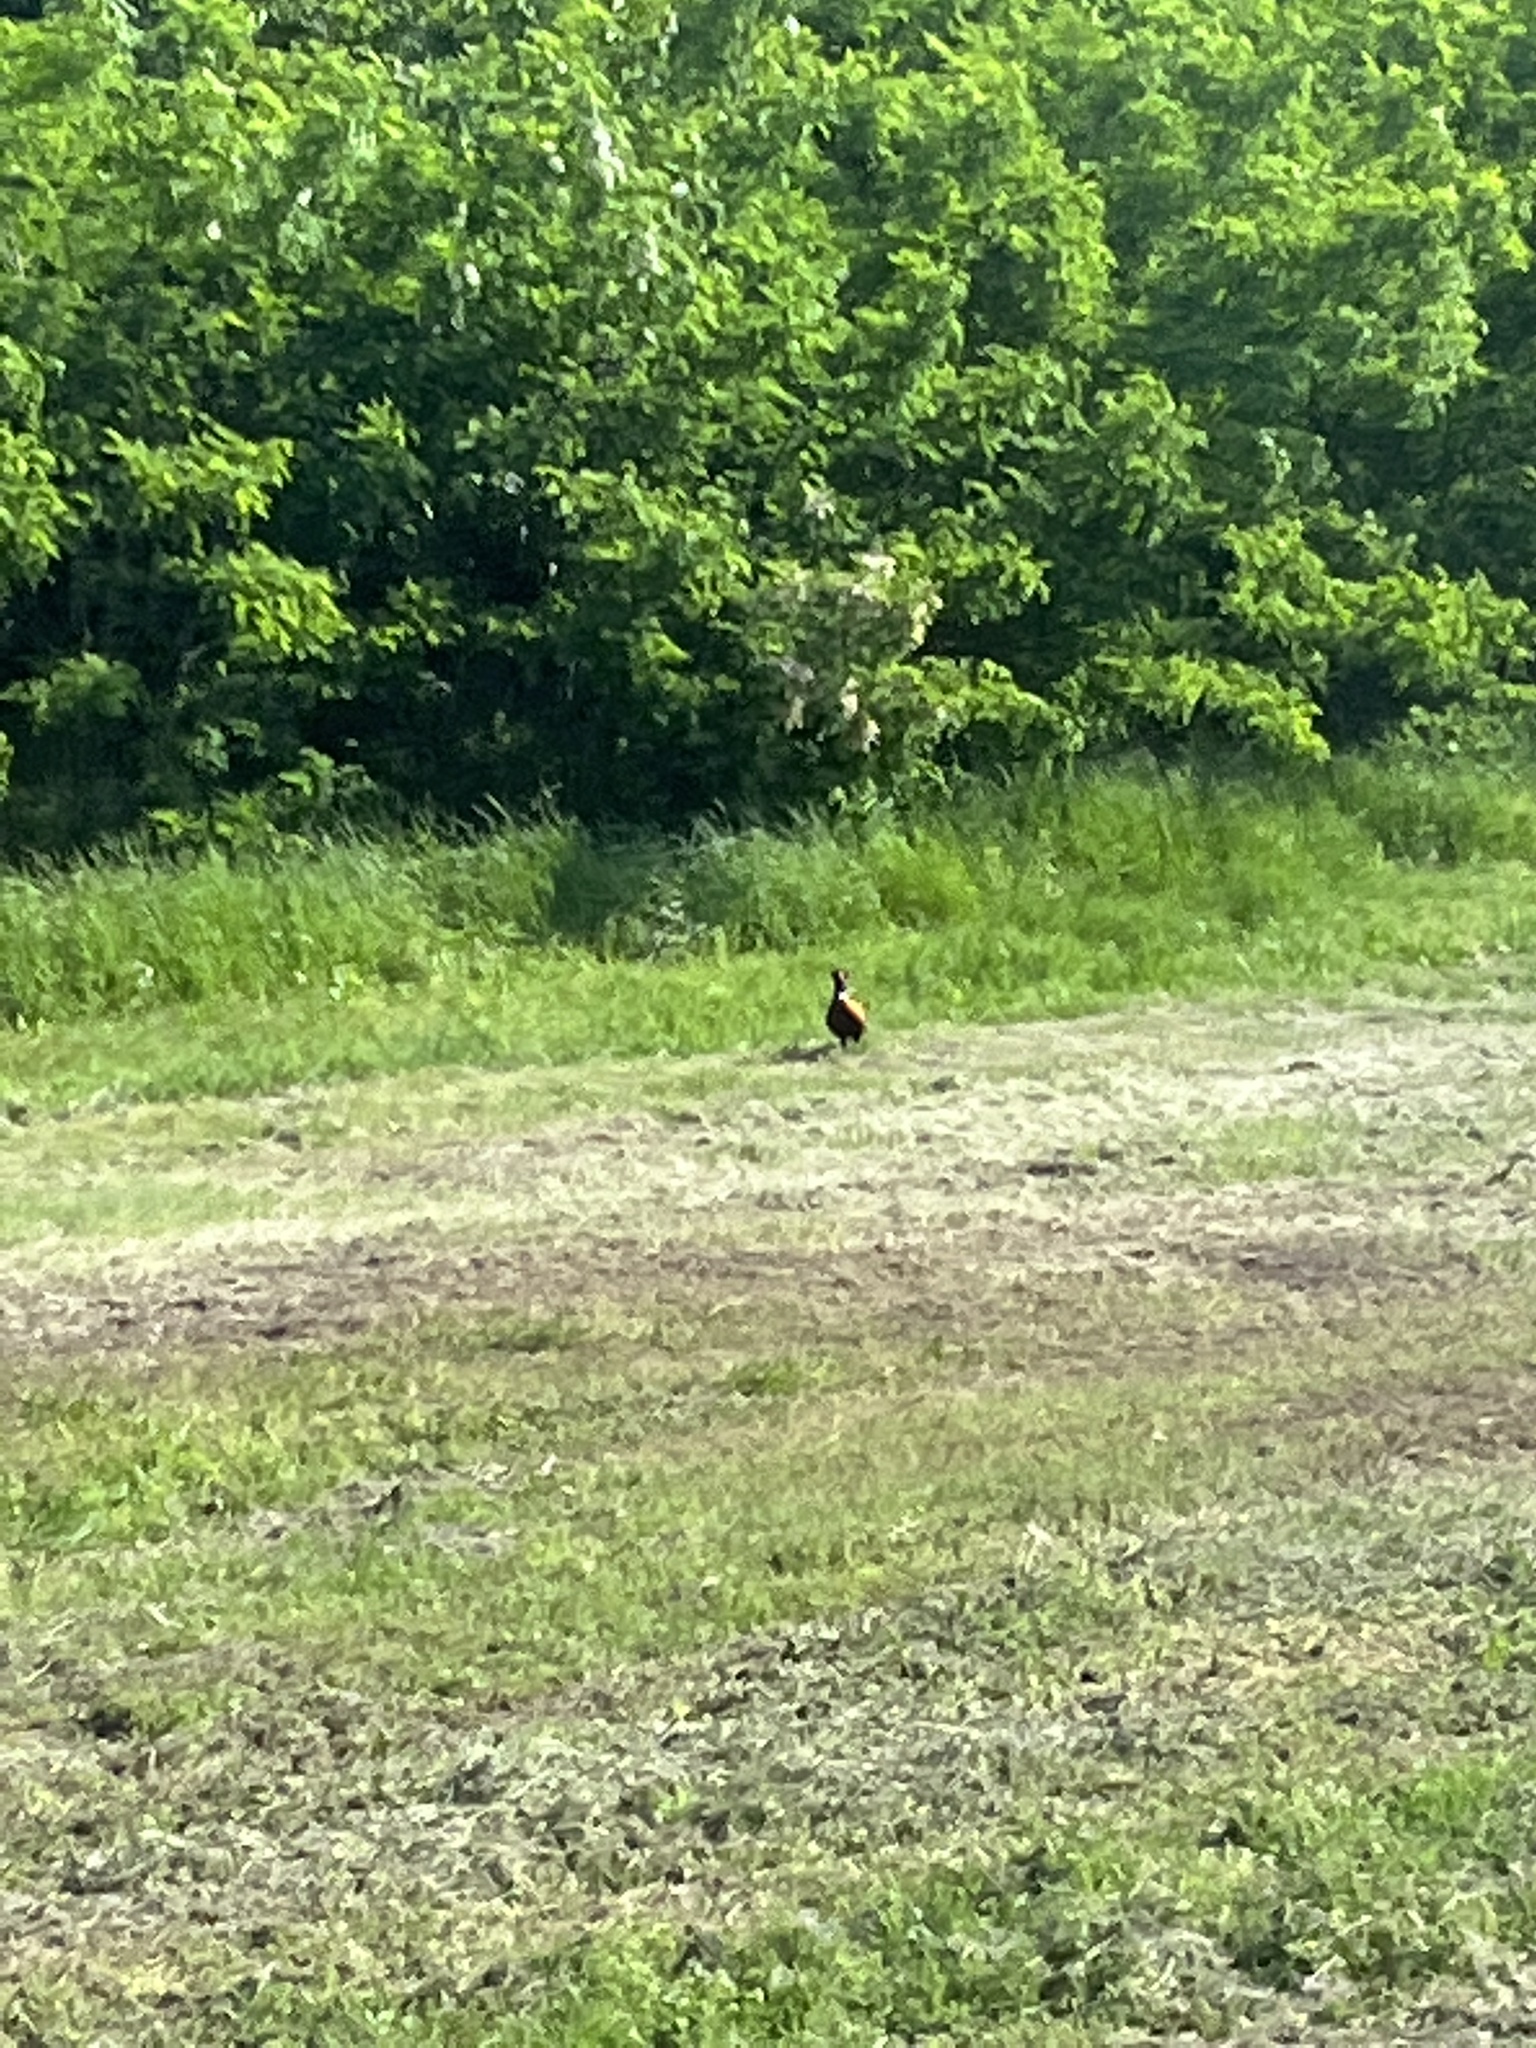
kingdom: Animalia
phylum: Chordata
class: Aves
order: Galliformes
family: Phasianidae
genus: Phasianus
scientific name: Phasianus colchicus
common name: Common pheasant
